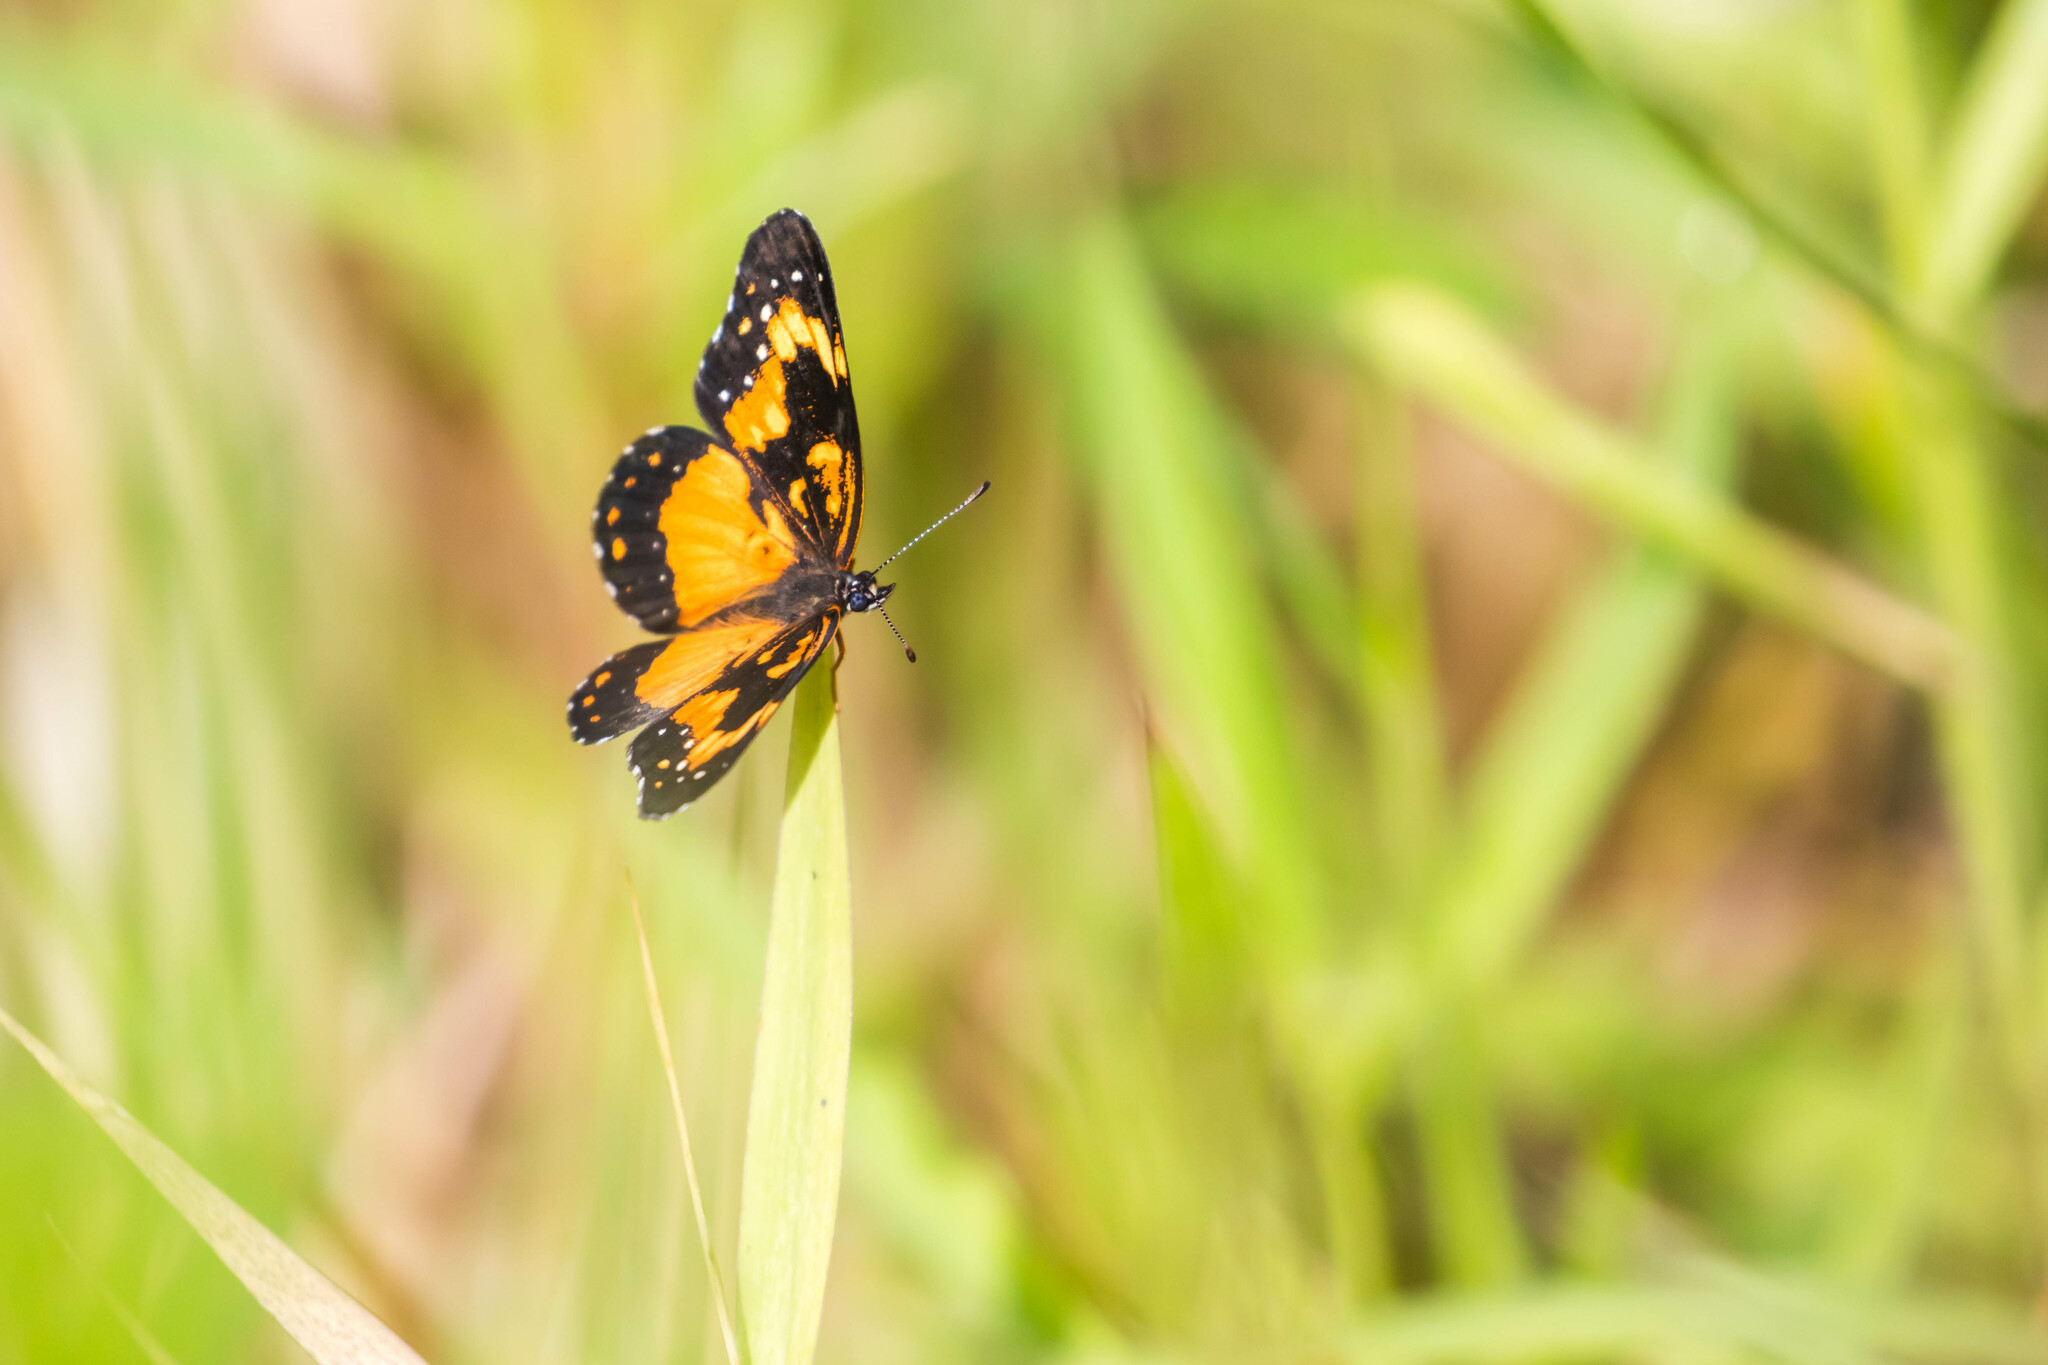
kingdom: Animalia
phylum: Arthropoda
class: Insecta
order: Lepidoptera
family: Nymphalidae
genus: Chlosyne
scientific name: Chlosyne lacinia
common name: Bordered patch
